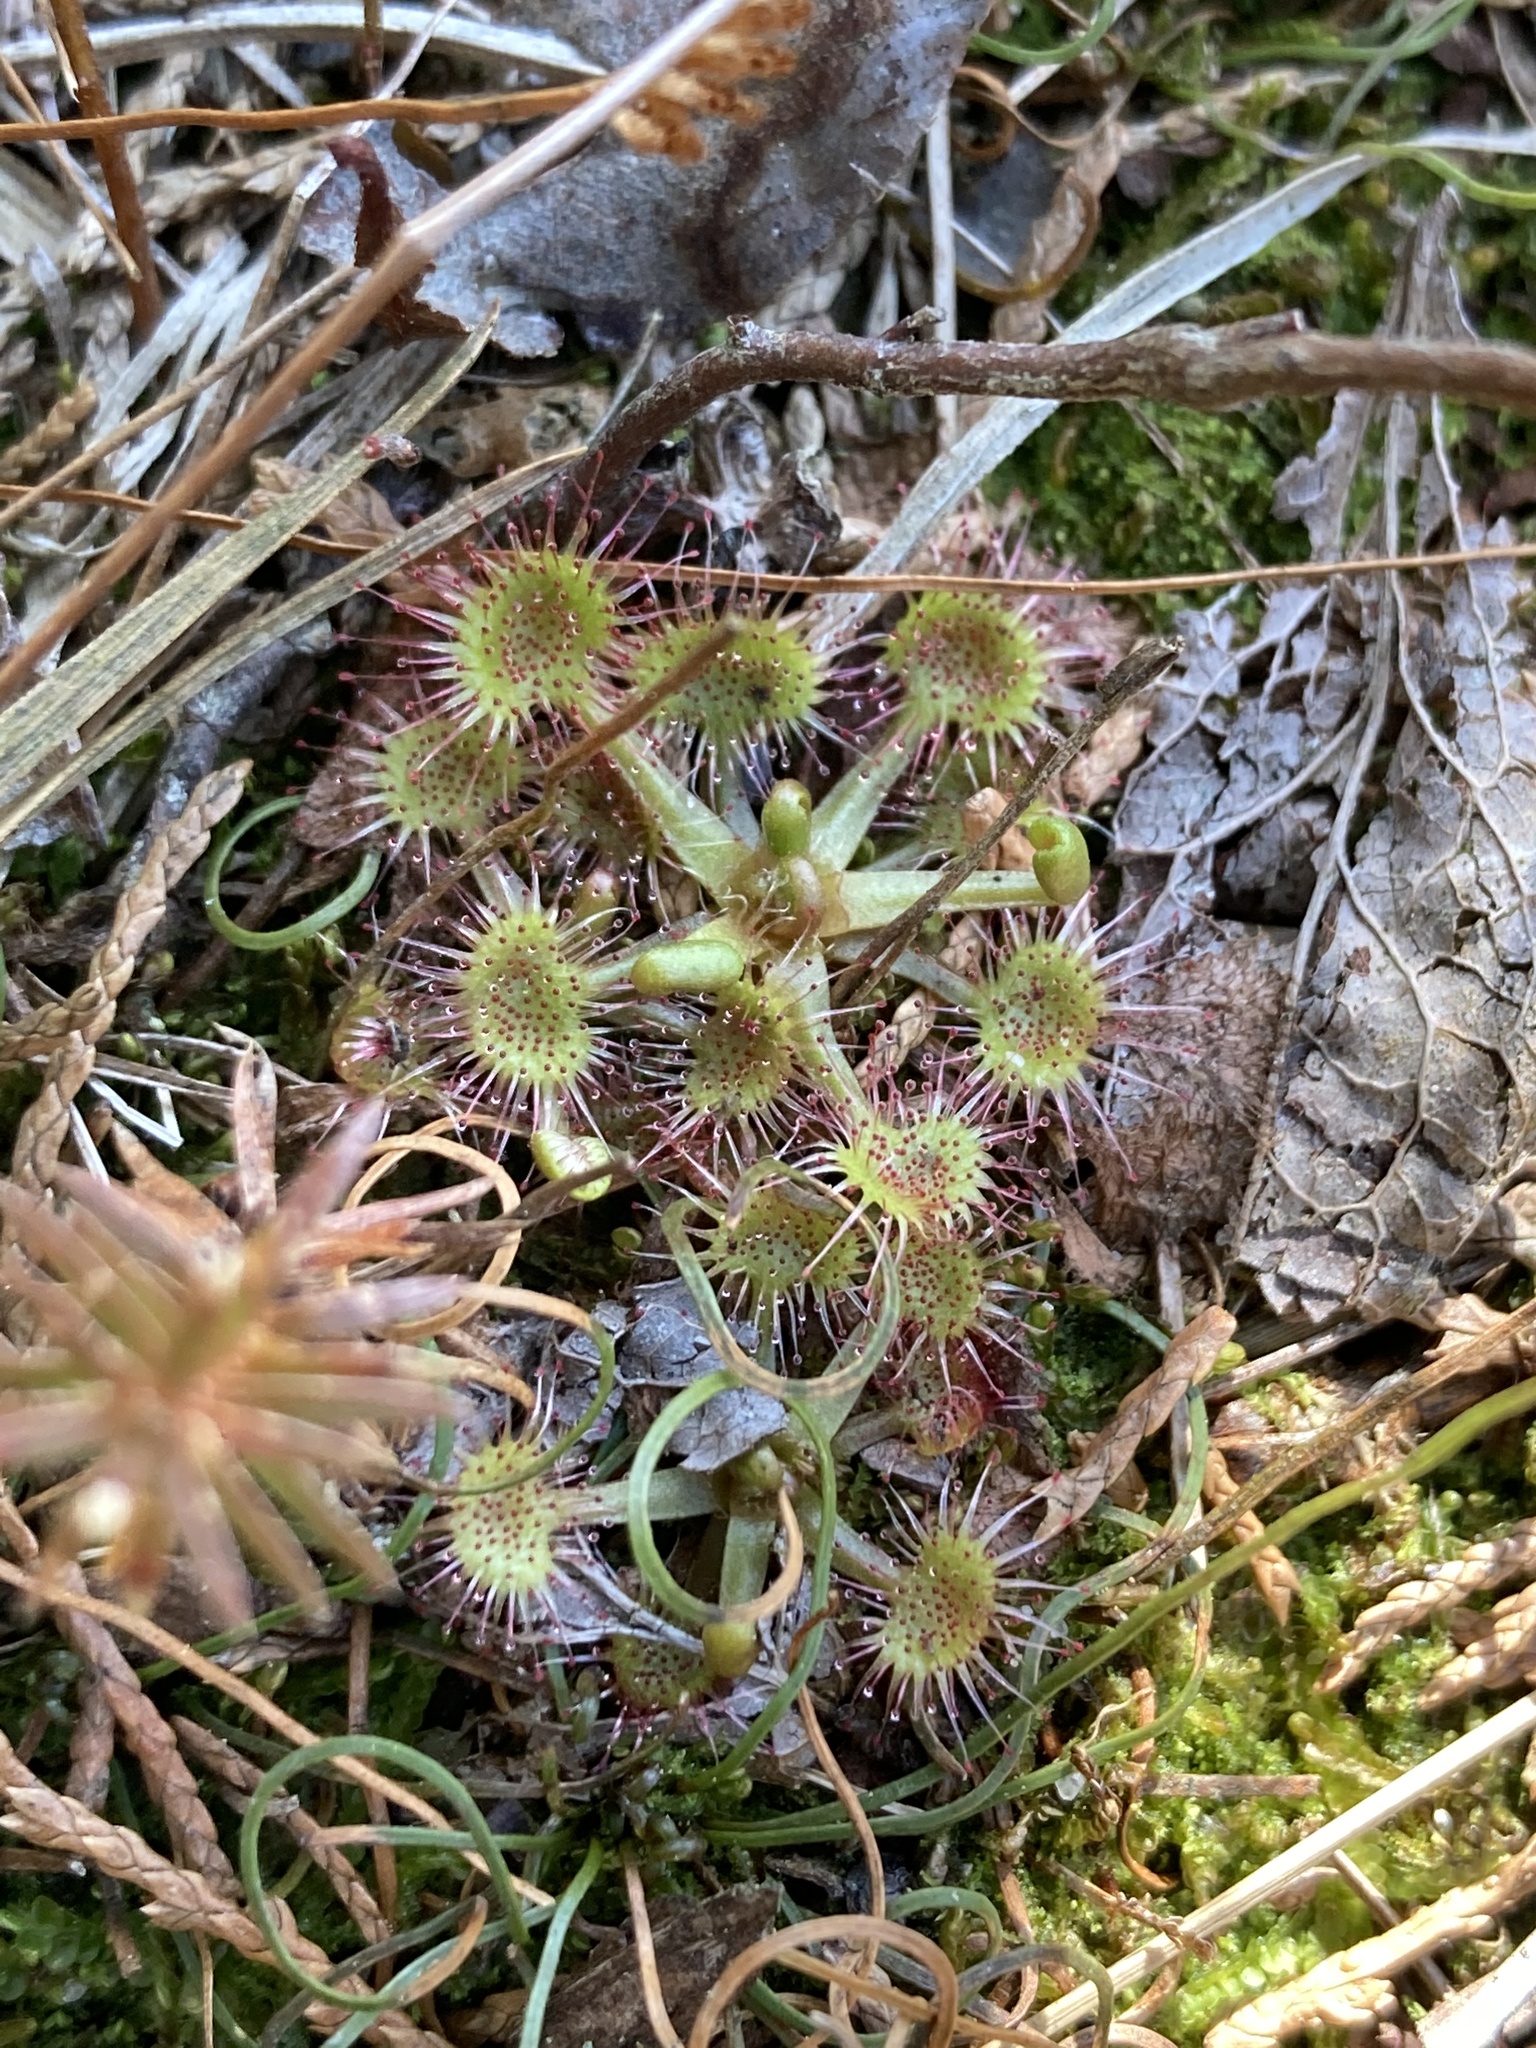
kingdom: Plantae
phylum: Tracheophyta
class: Magnoliopsida
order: Caryophyllales
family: Droseraceae
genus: Drosera
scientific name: Drosera rotundifolia
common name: Round-leaved sundew
